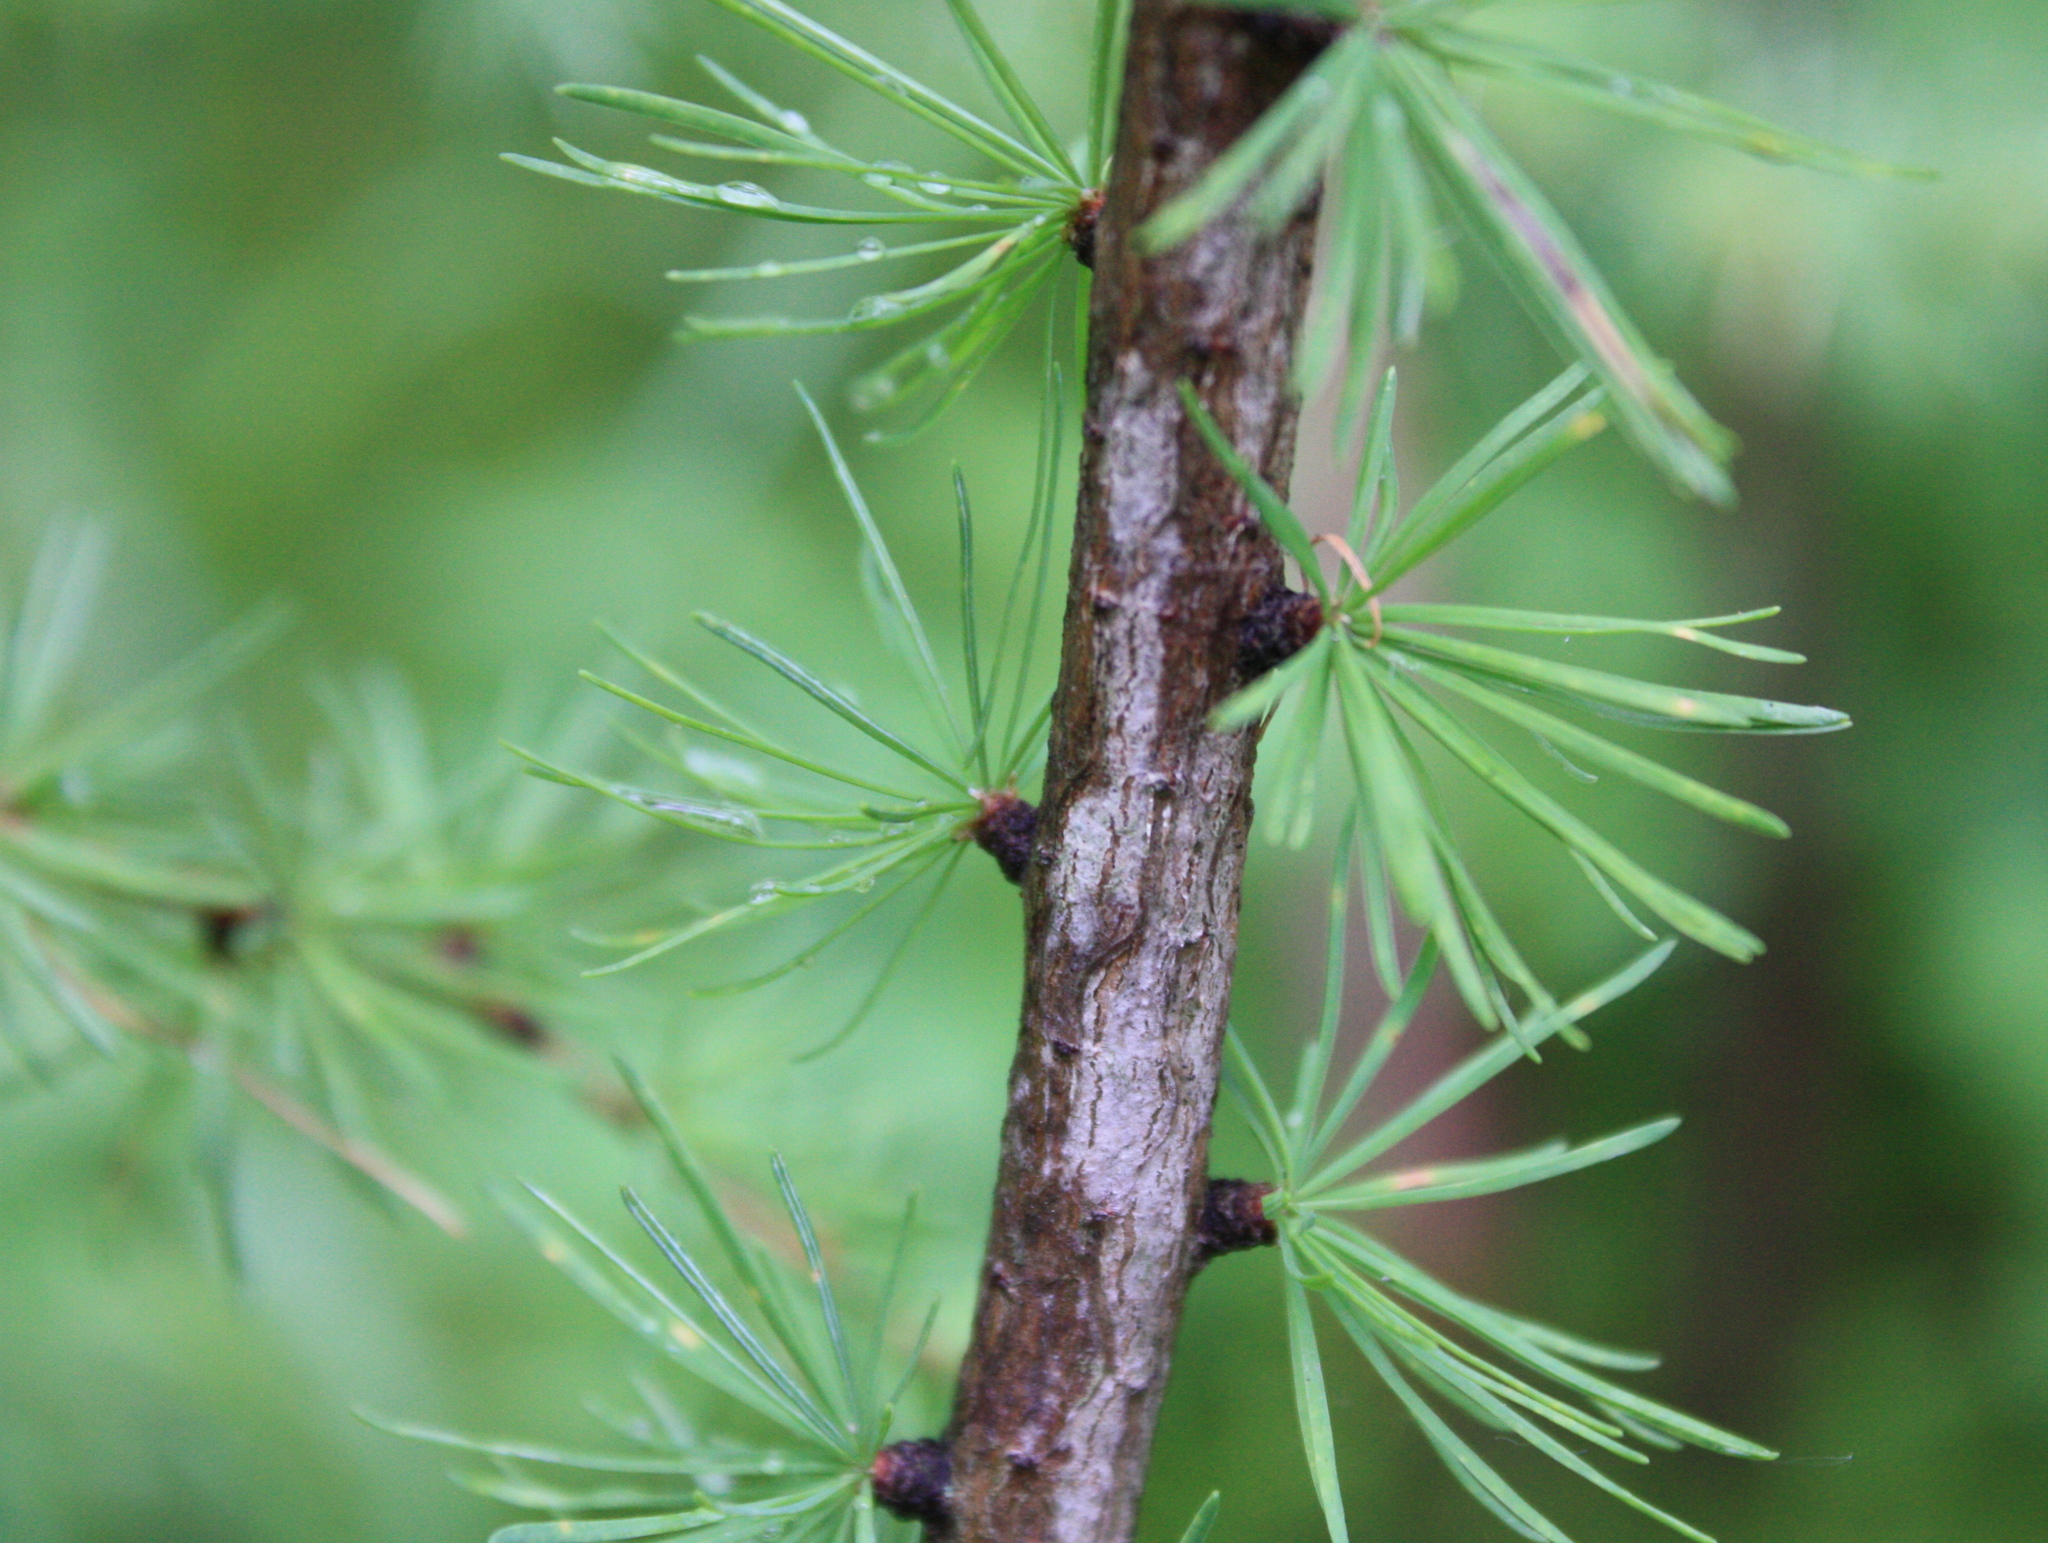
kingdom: Plantae
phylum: Tracheophyta
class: Pinopsida
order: Pinales
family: Pinaceae
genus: Larix
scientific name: Larix laricina
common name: American larch
